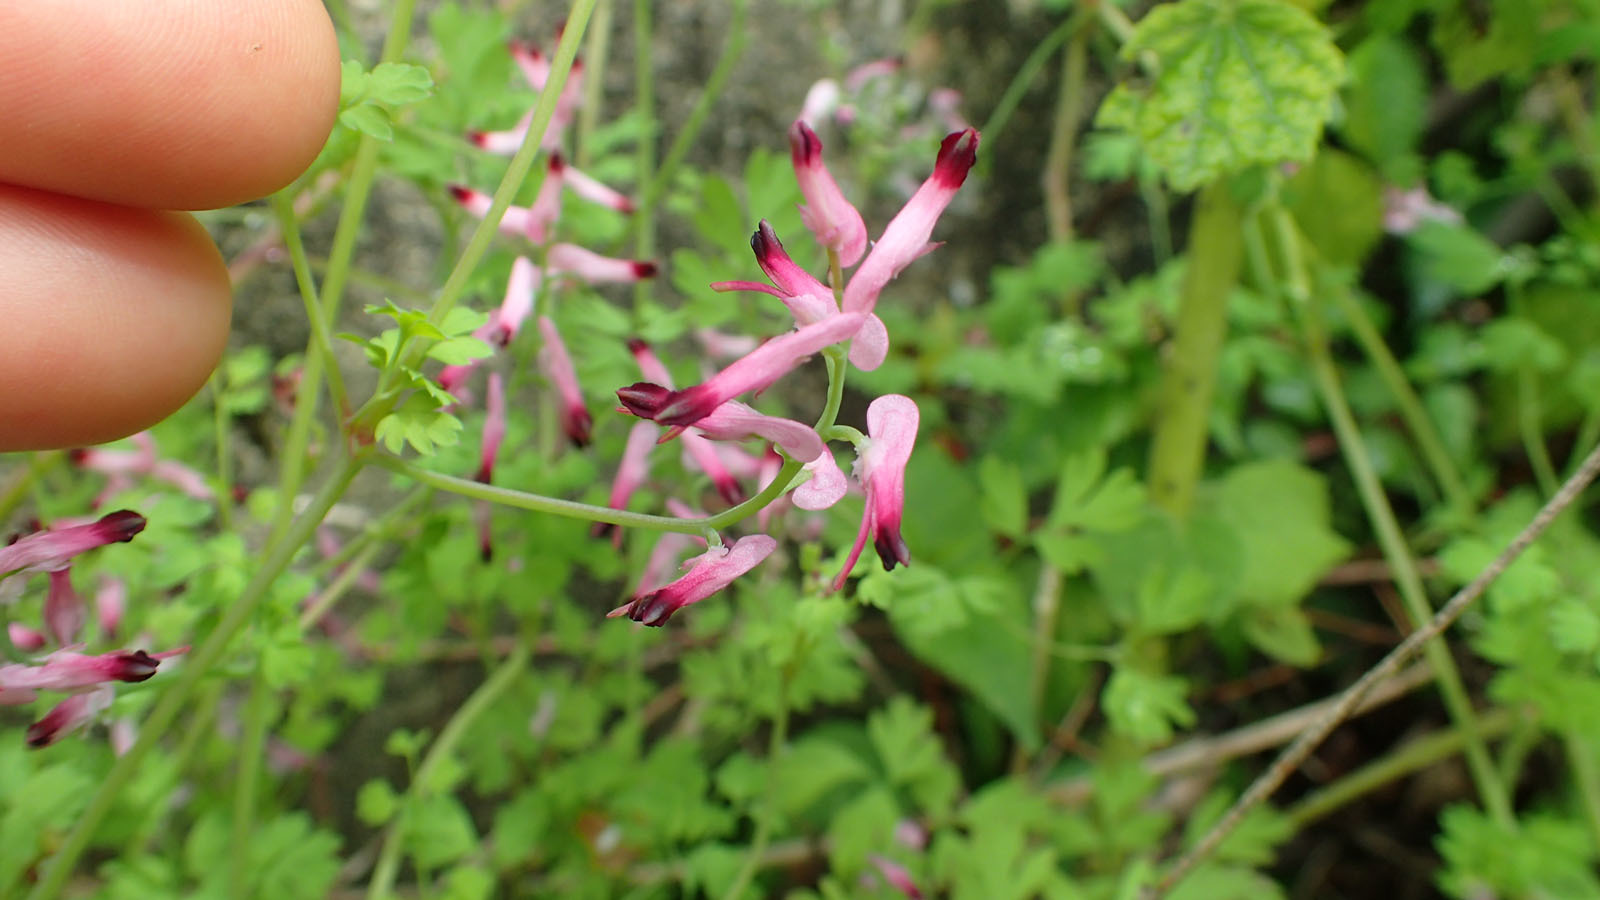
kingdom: Plantae
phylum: Tracheophyta
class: Magnoliopsida
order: Ranunculales
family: Papaveraceae
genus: Fumaria
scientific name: Fumaria muralis
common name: Common ramping-fumitory
